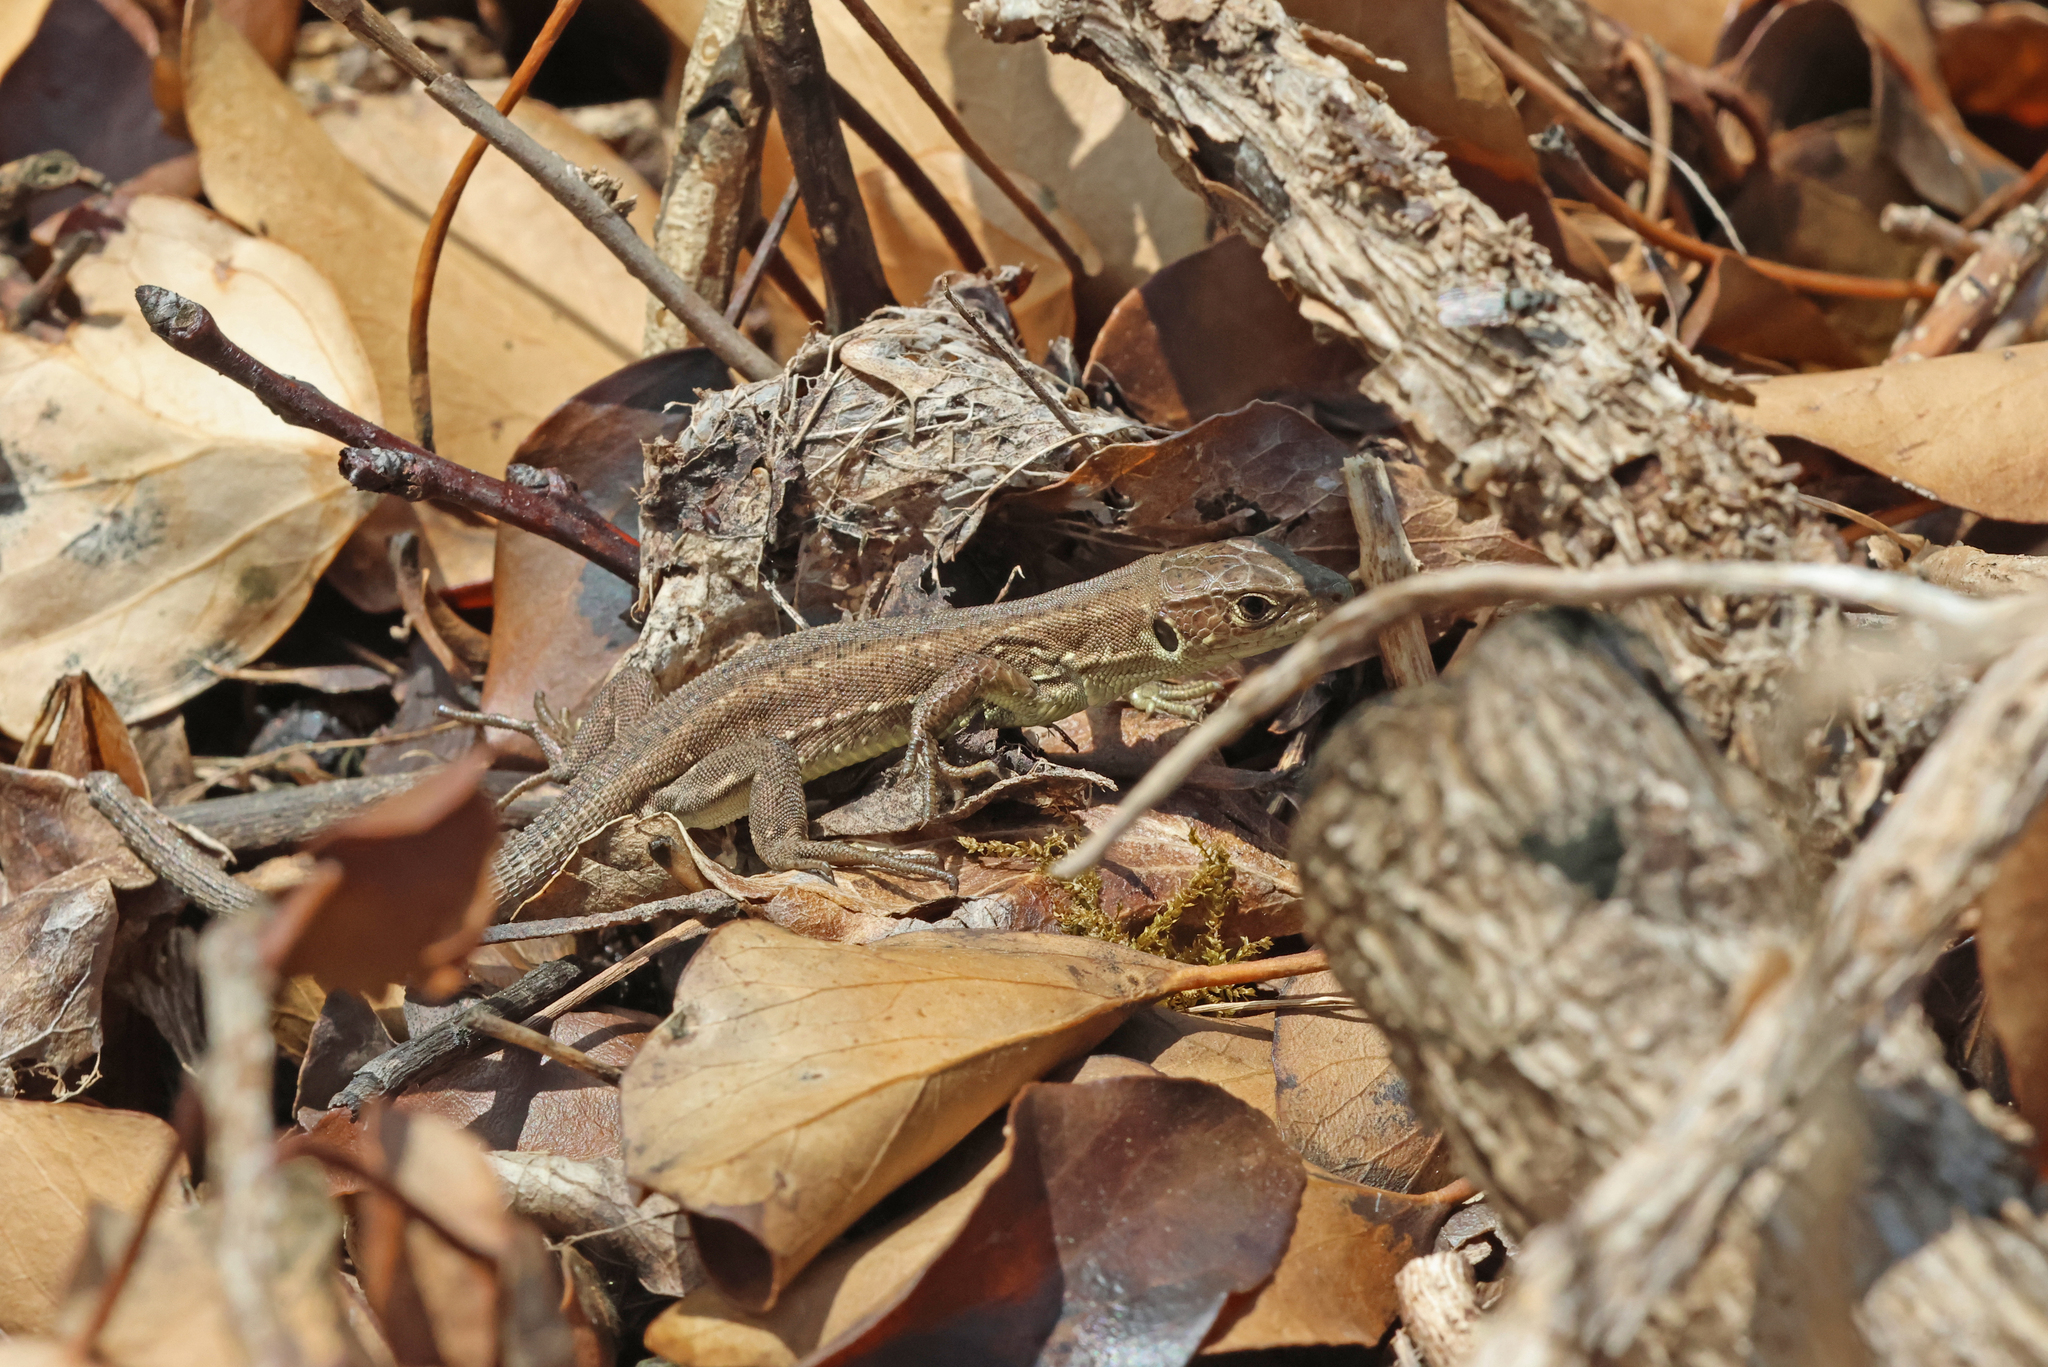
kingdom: Animalia
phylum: Chordata
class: Squamata
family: Lacertidae
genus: Lacerta
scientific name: Lacerta viridis
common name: European green lizard
